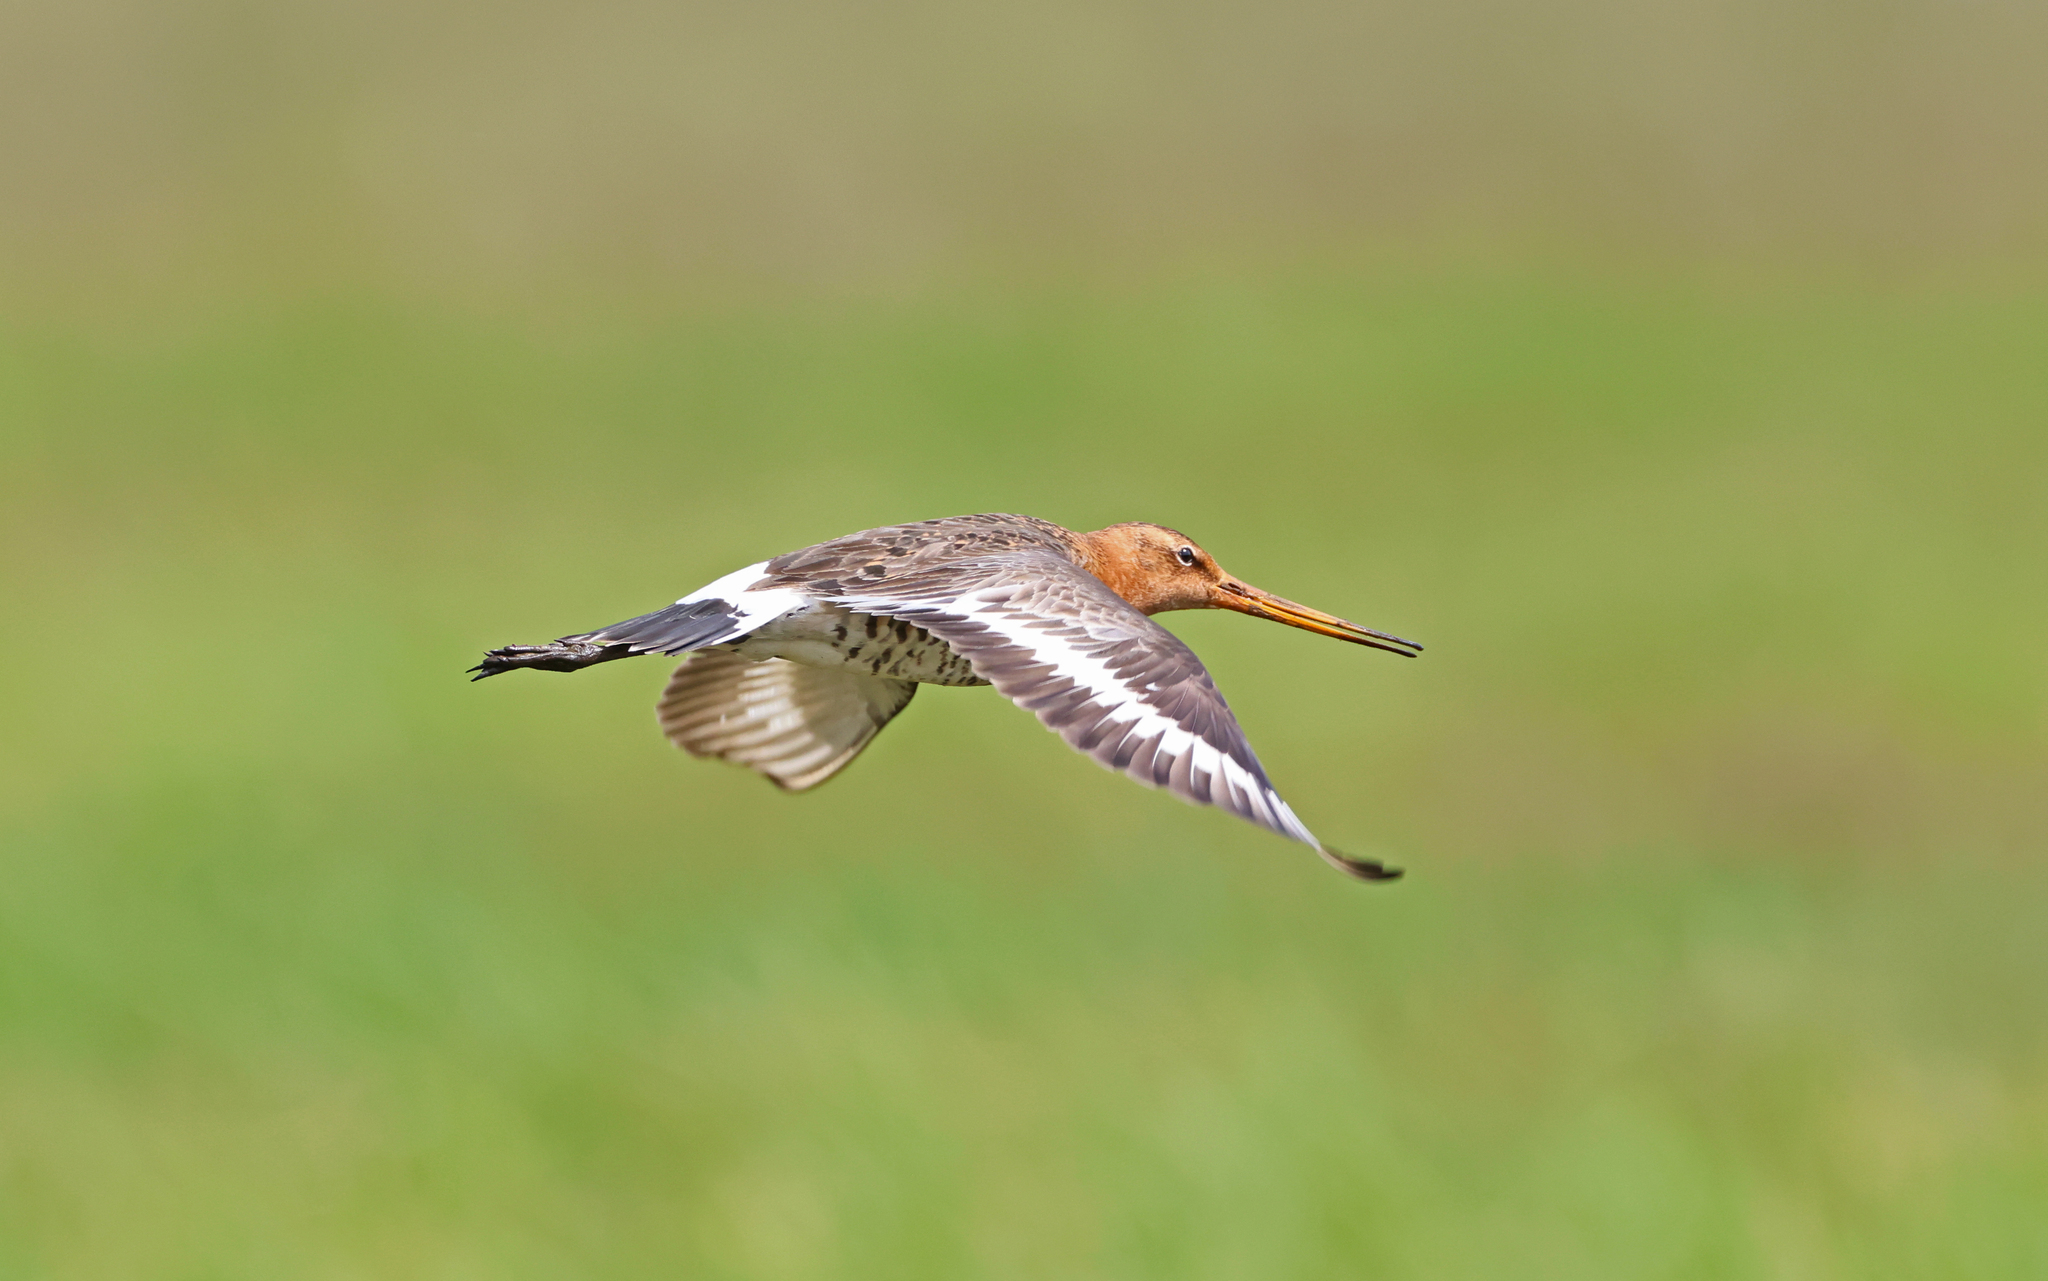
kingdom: Animalia
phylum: Chordata
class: Aves
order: Charadriiformes
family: Scolopacidae
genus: Limosa
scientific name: Limosa limosa
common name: Black-tailed godwit
